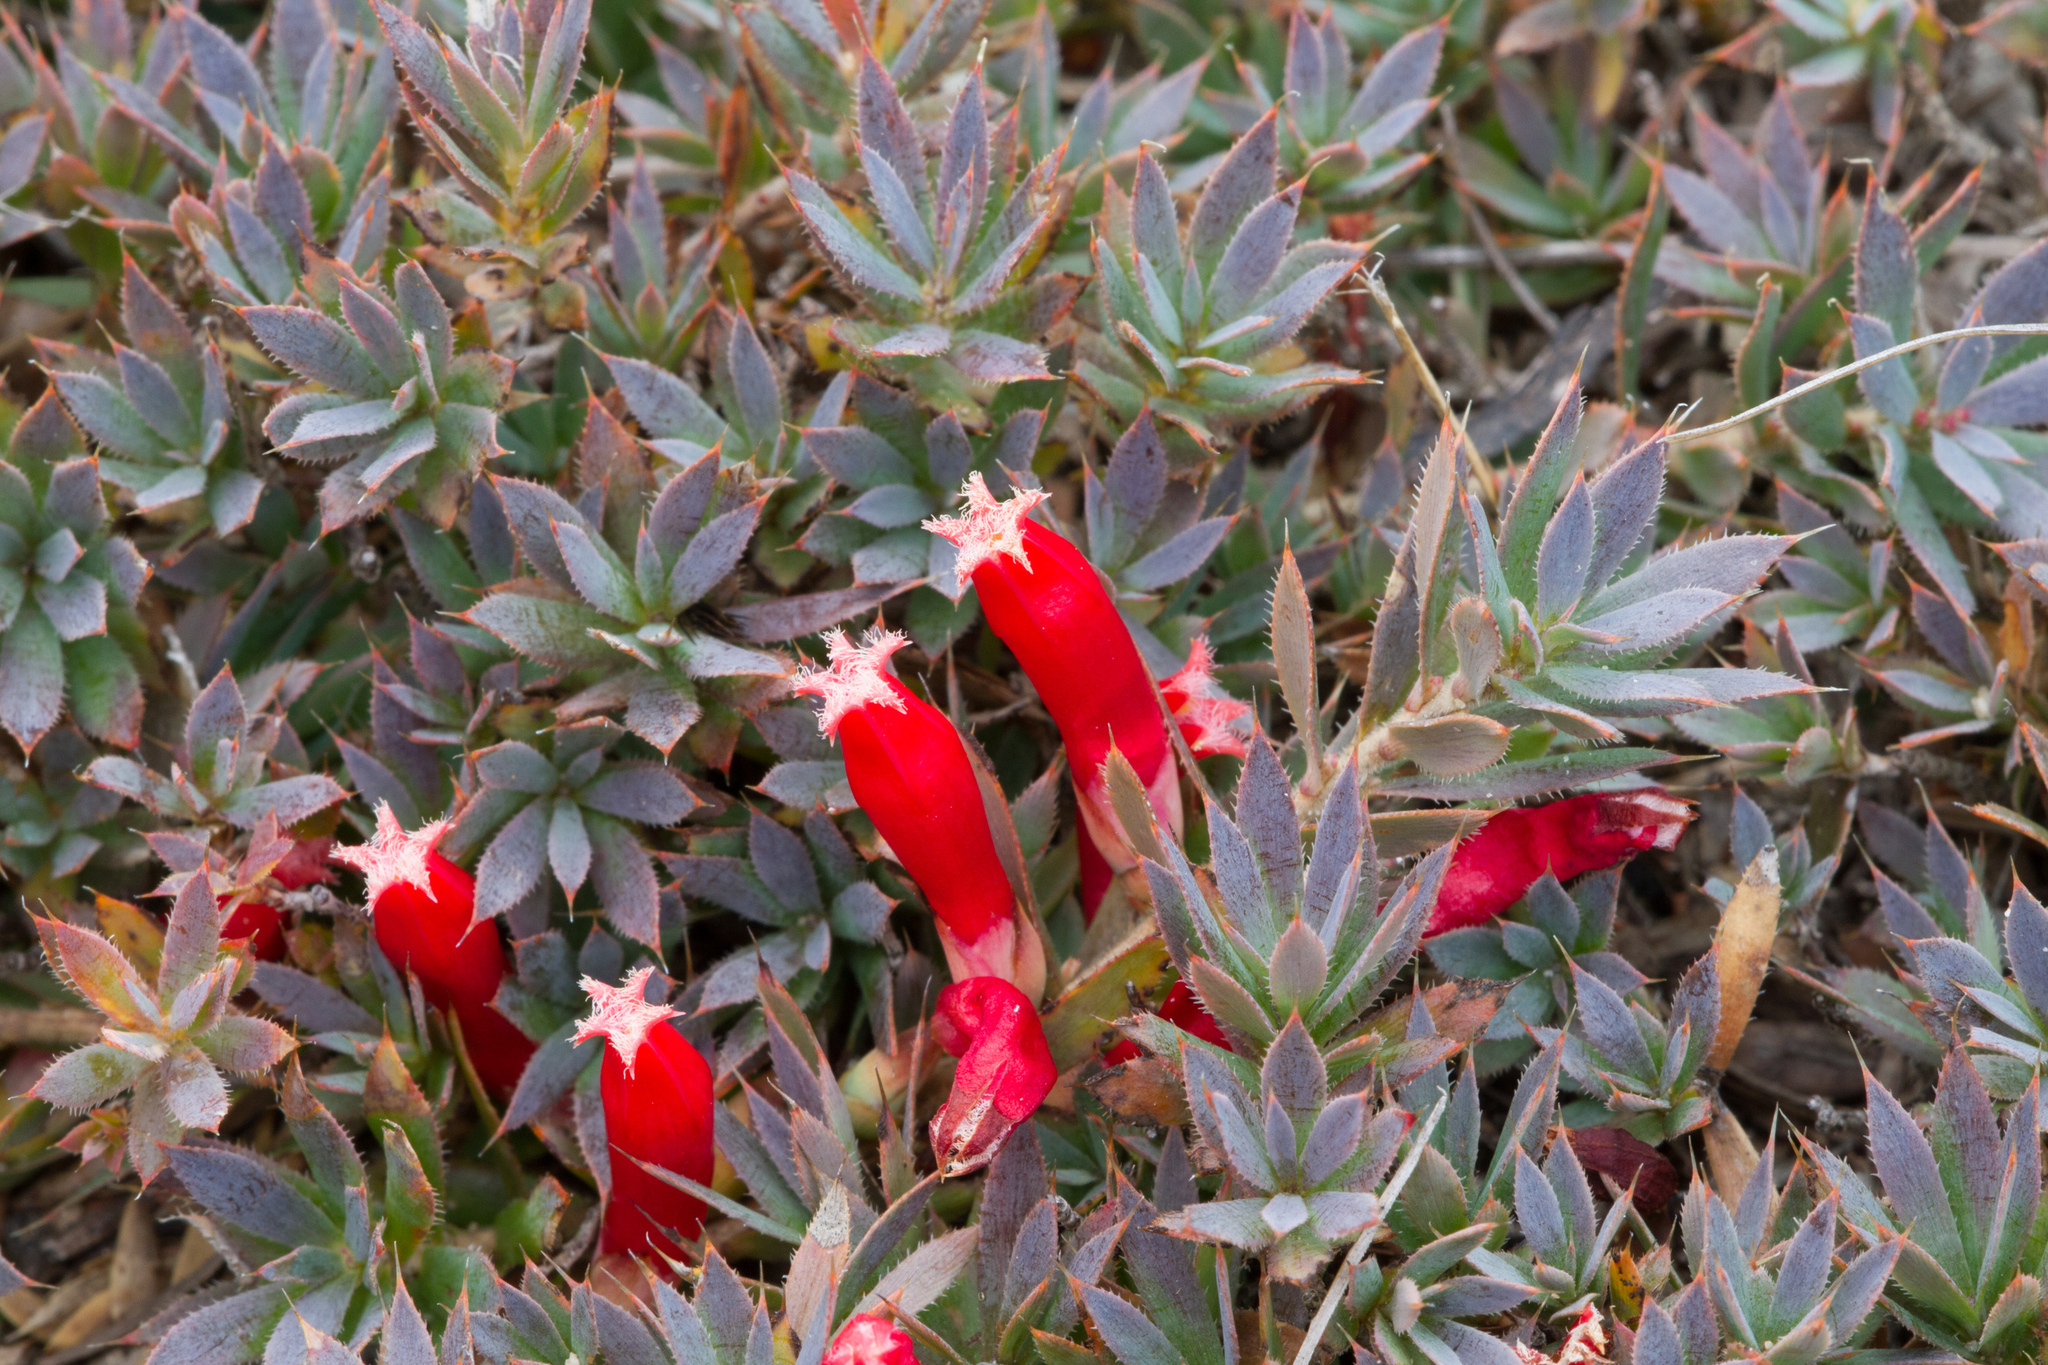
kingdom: Plantae
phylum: Tracheophyta
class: Magnoliopsida
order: Ericales
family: Ericaceae
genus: Styphelia
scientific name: Styphelia humifusa
